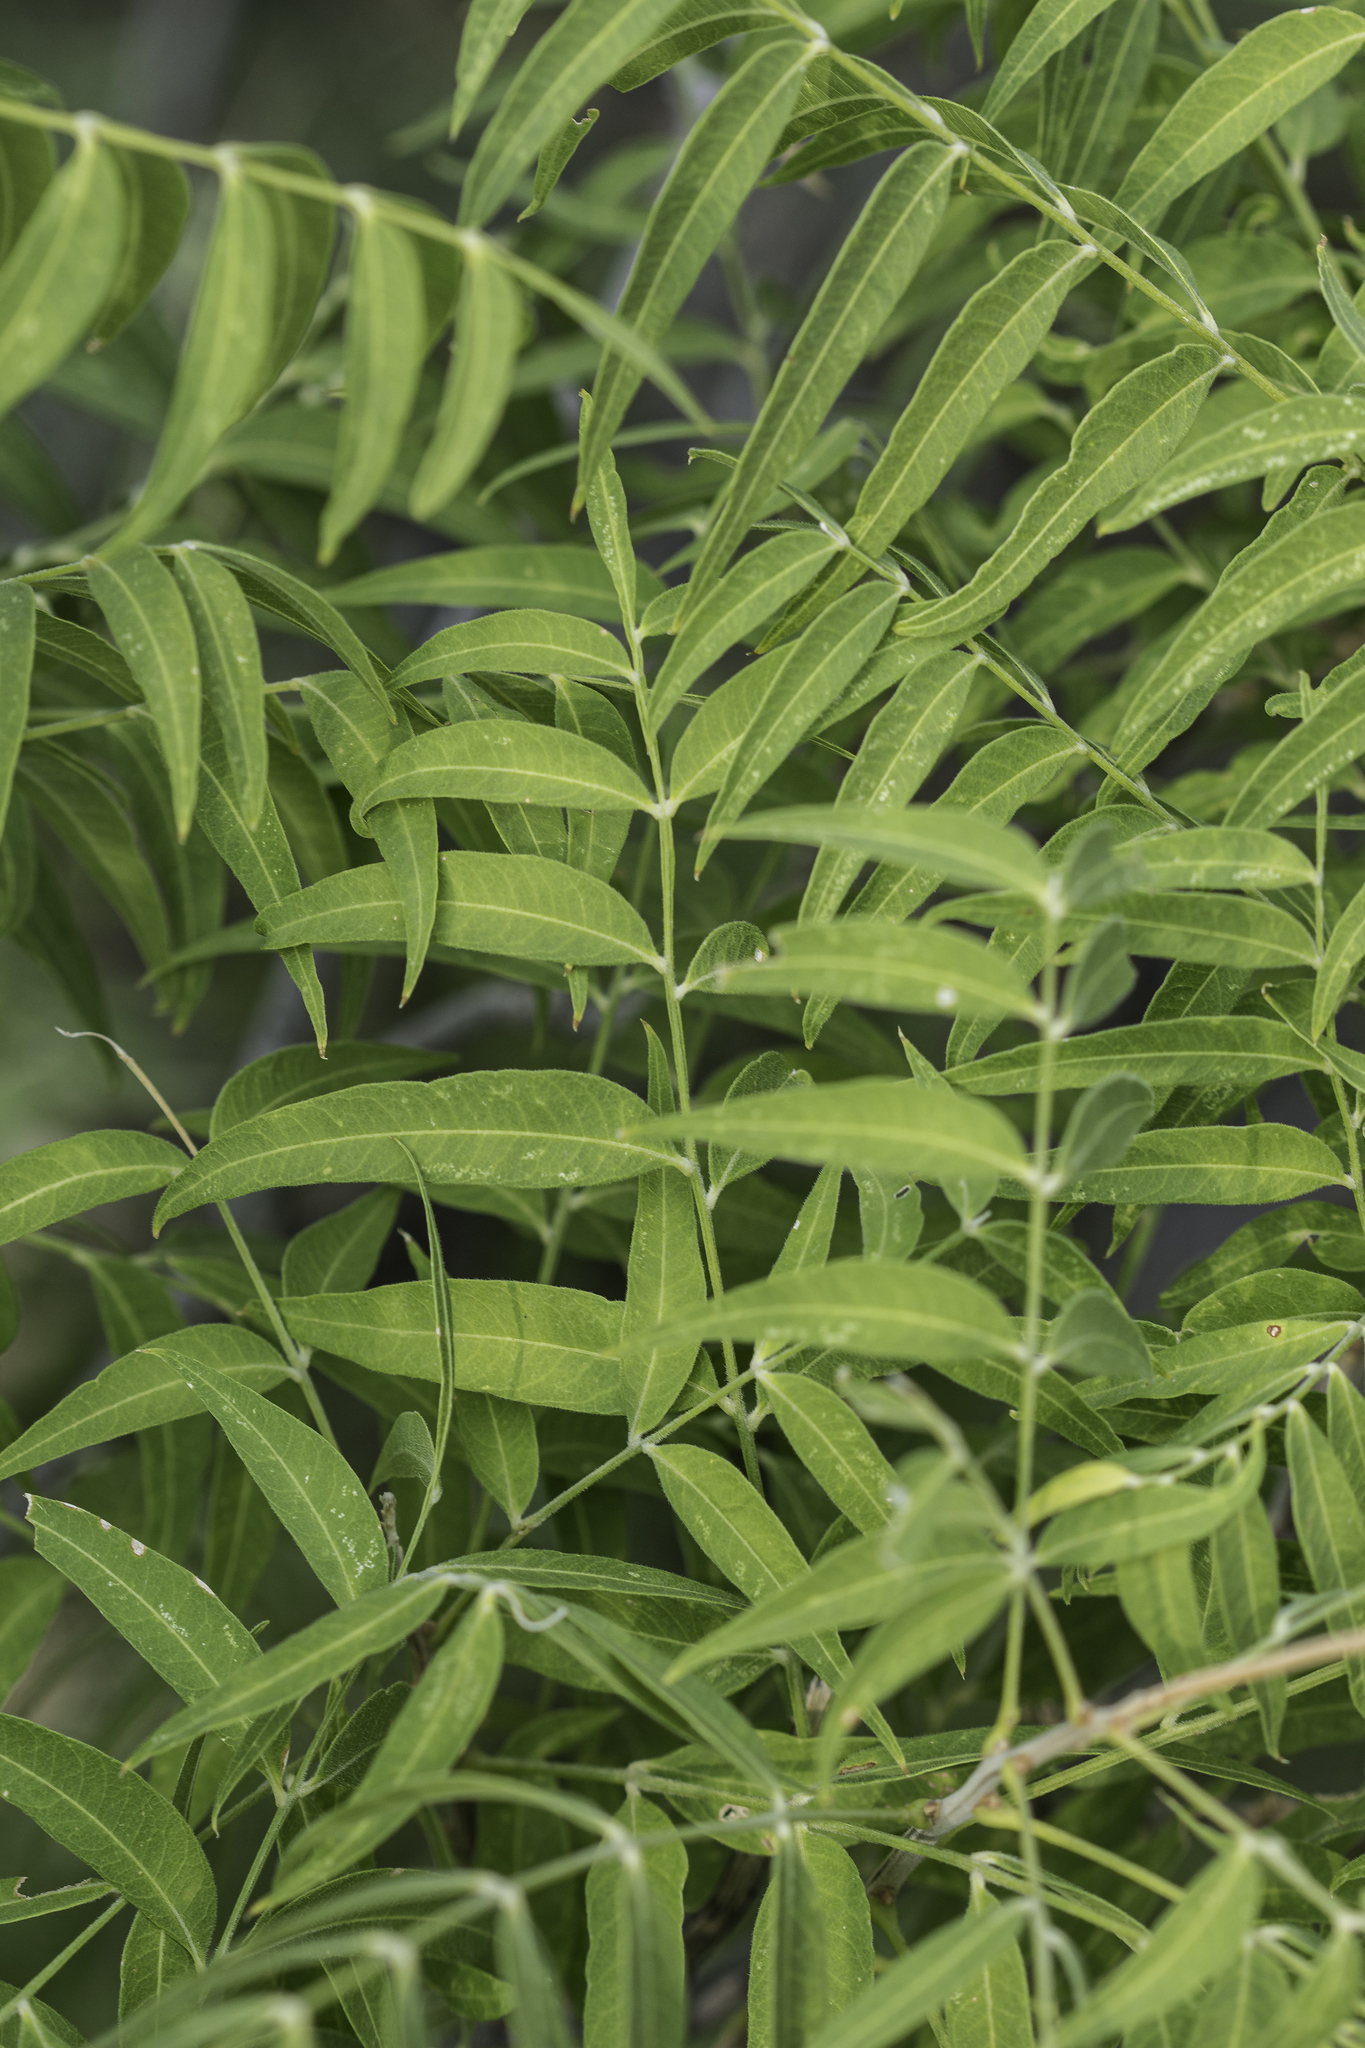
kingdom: Plantae
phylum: Tracheophyta
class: Magnoliopsida
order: Sapindales
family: Sapindaceae
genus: Sapindus
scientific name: Sapindus drummondii
